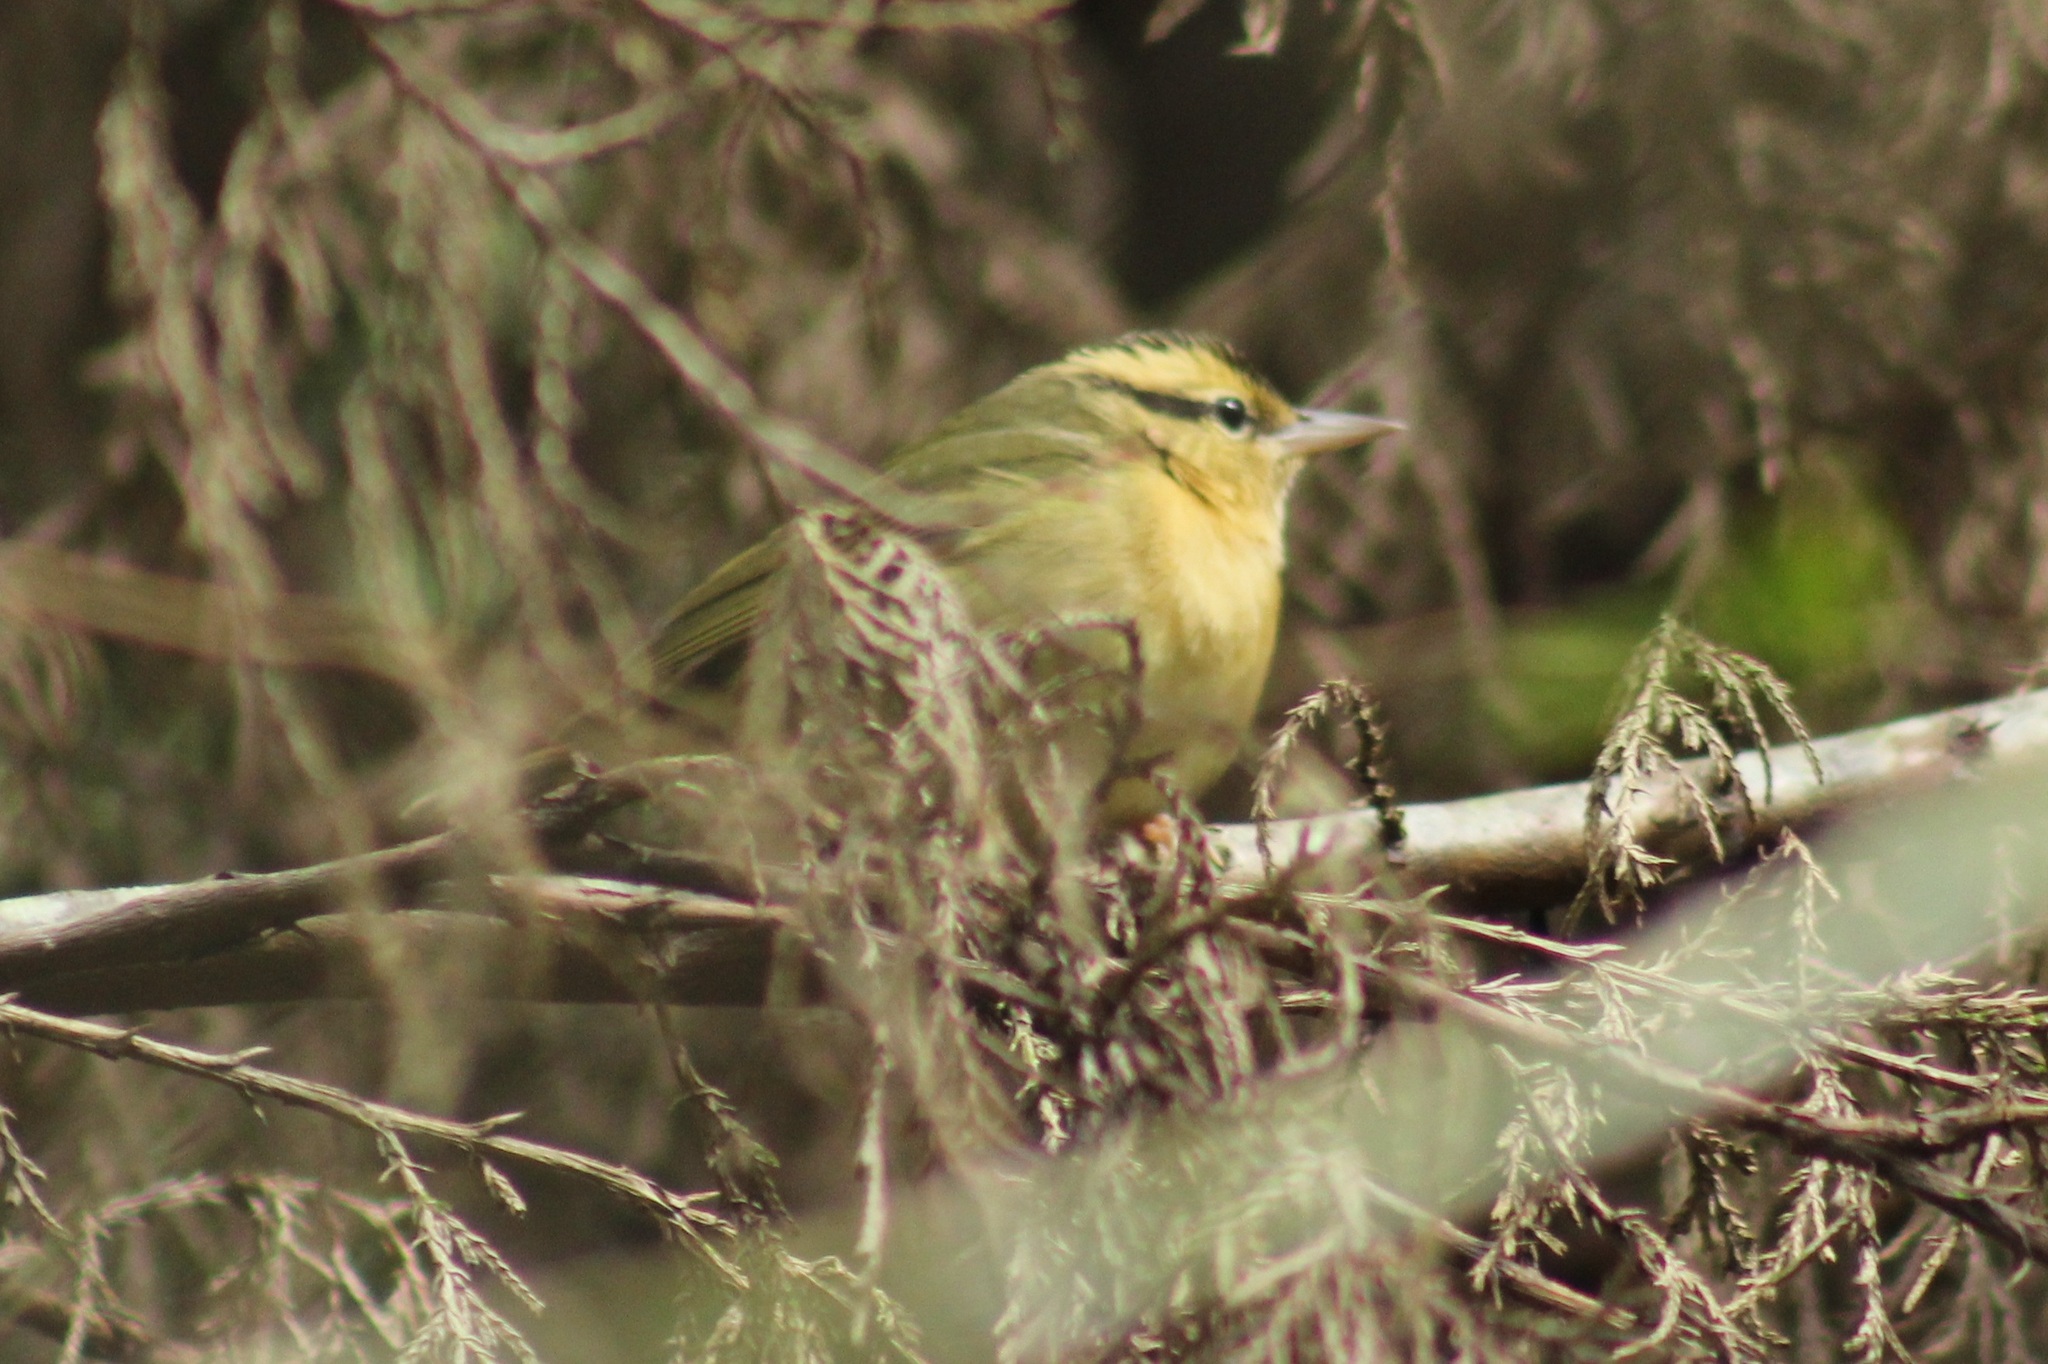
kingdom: Animalia
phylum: Chordata
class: Aves
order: Passeriformes
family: Parulidae
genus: Helmitheros
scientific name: Helmitheros vermivorum
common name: Worm-eating warbler
